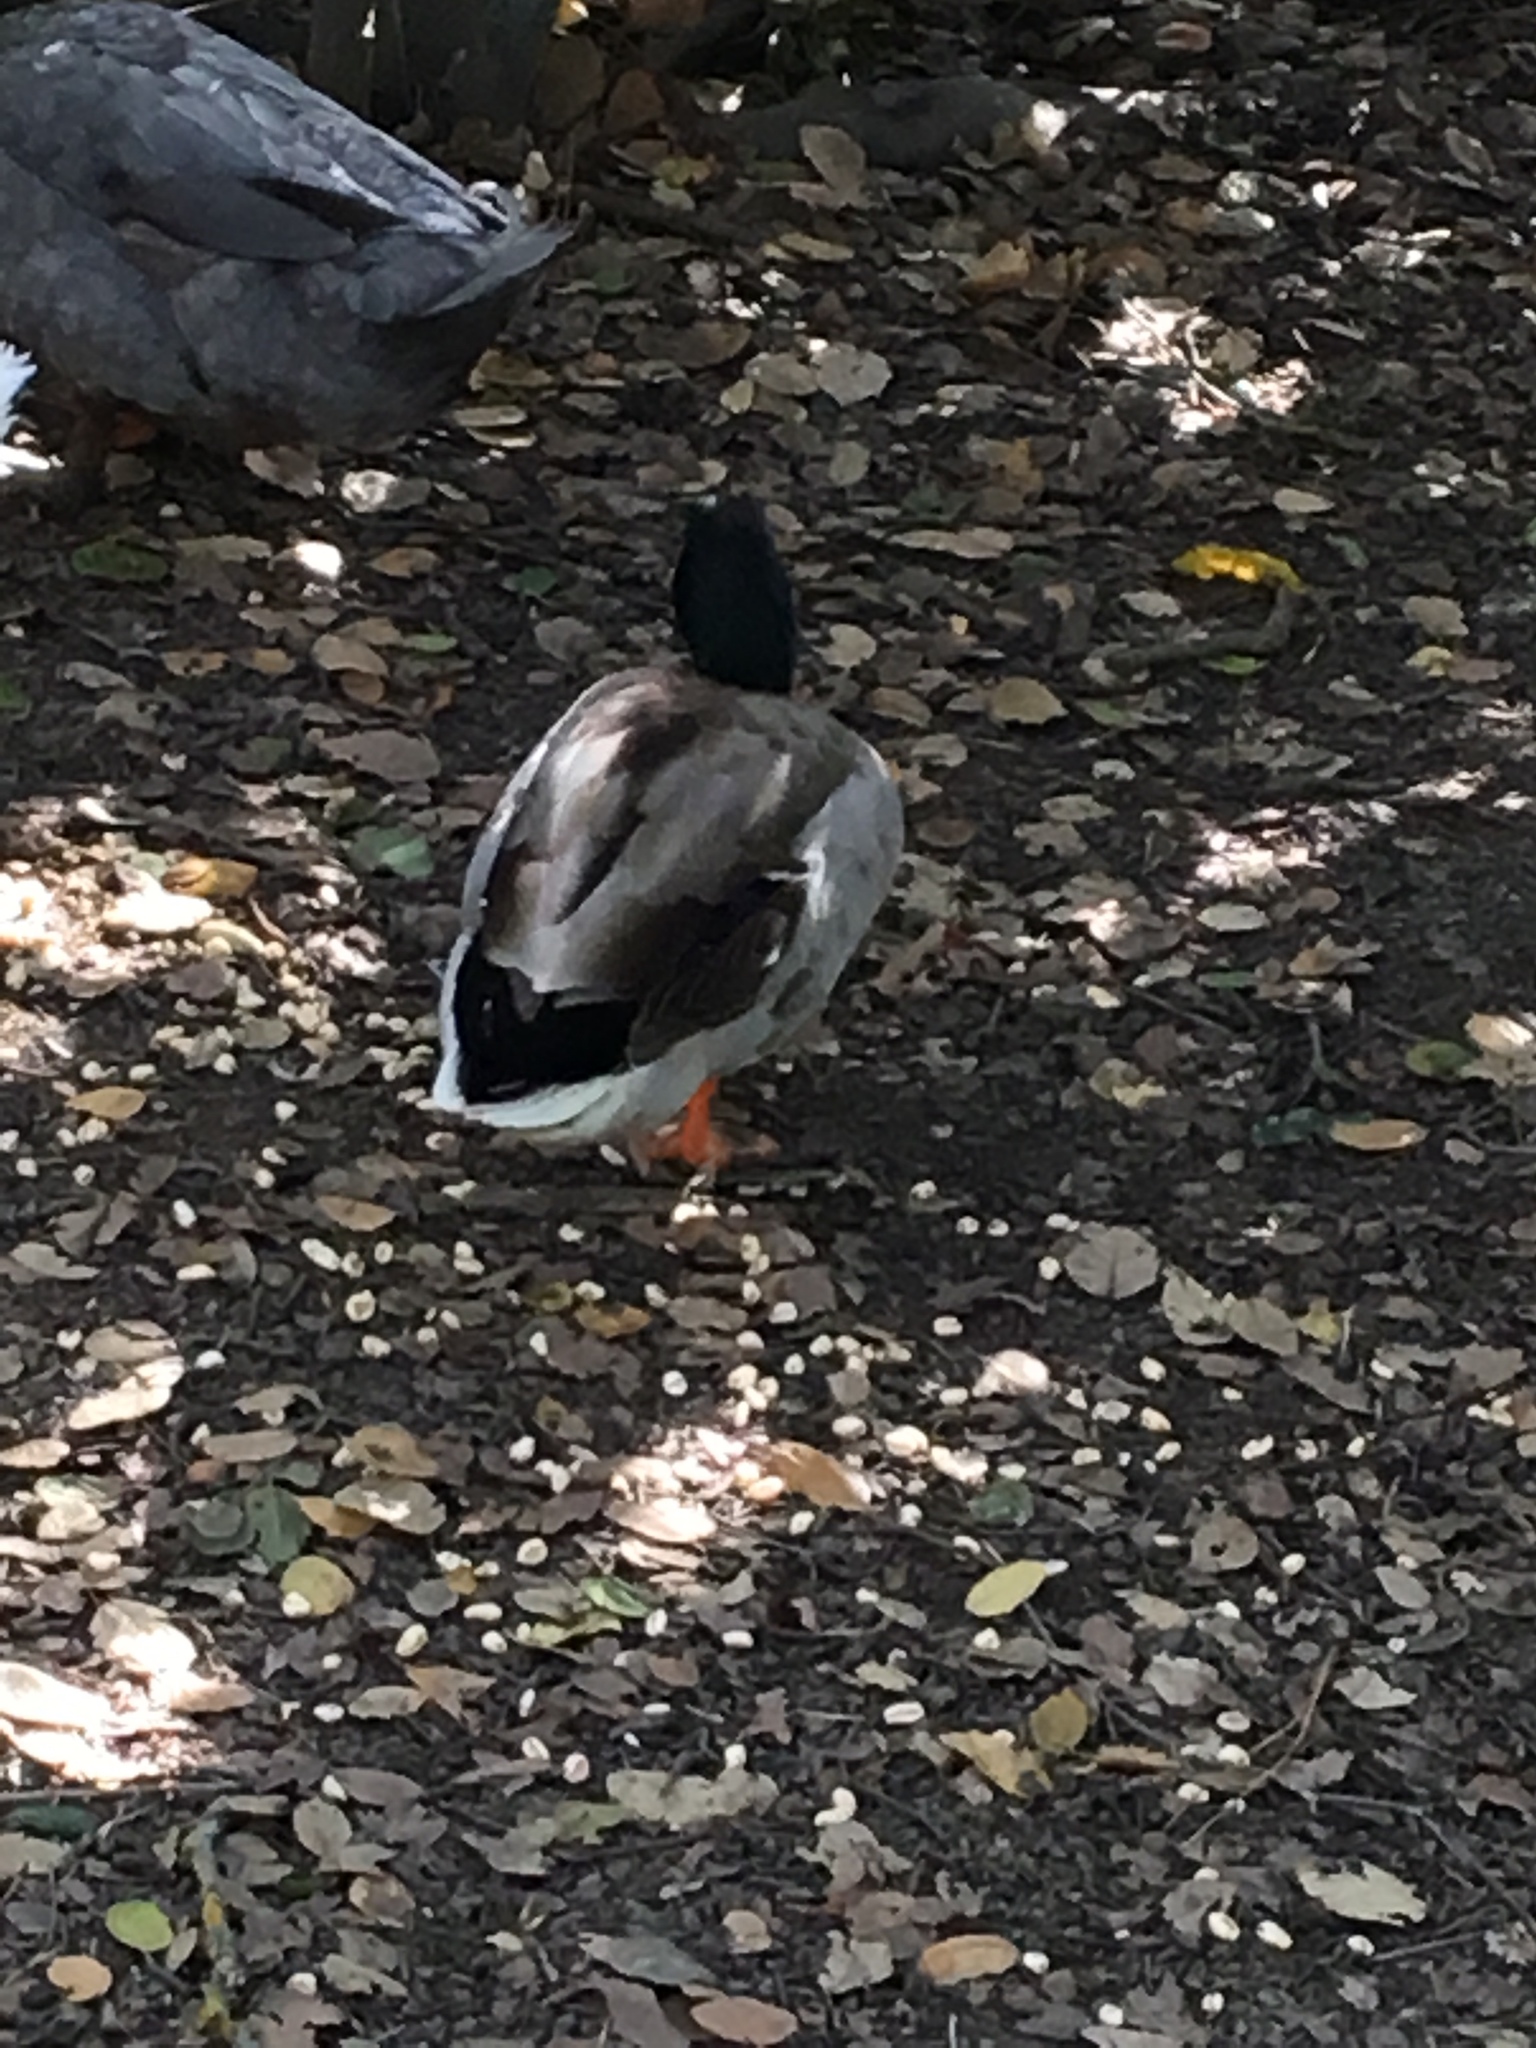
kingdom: Animalia
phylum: Chordata
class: Aves
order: Anseriformes
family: Anatidae
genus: Anas
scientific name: Anas platyrhynchos
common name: Mallard
